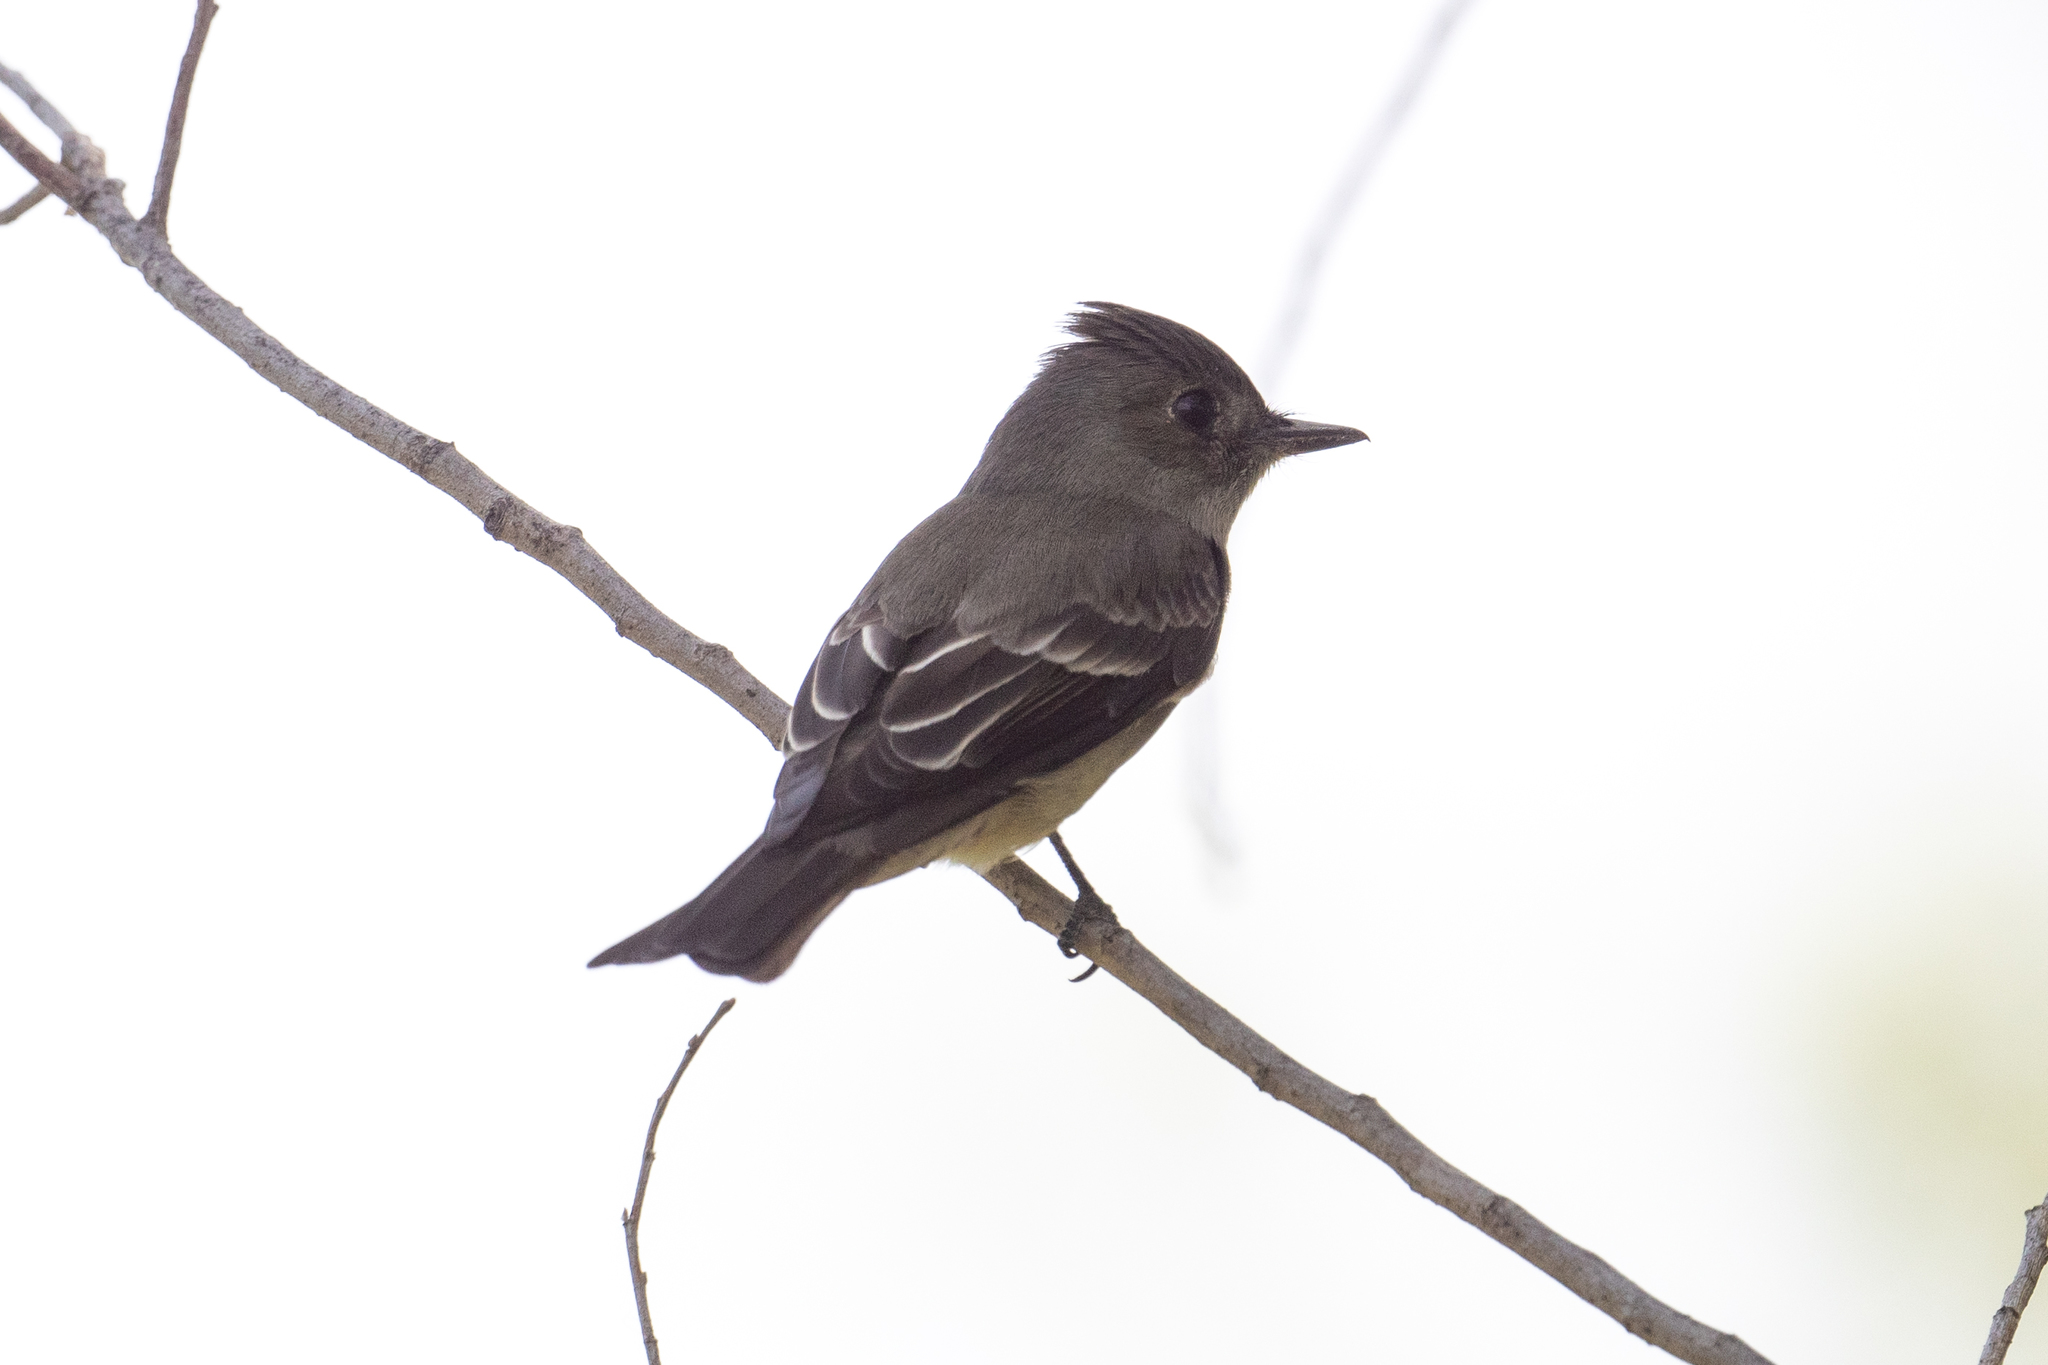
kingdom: Animalia
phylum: Chordata
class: Aves
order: Passeriformes
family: Tyrannidae
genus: Contopus
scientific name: Contopus sordidulus
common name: Western wood-pewee
